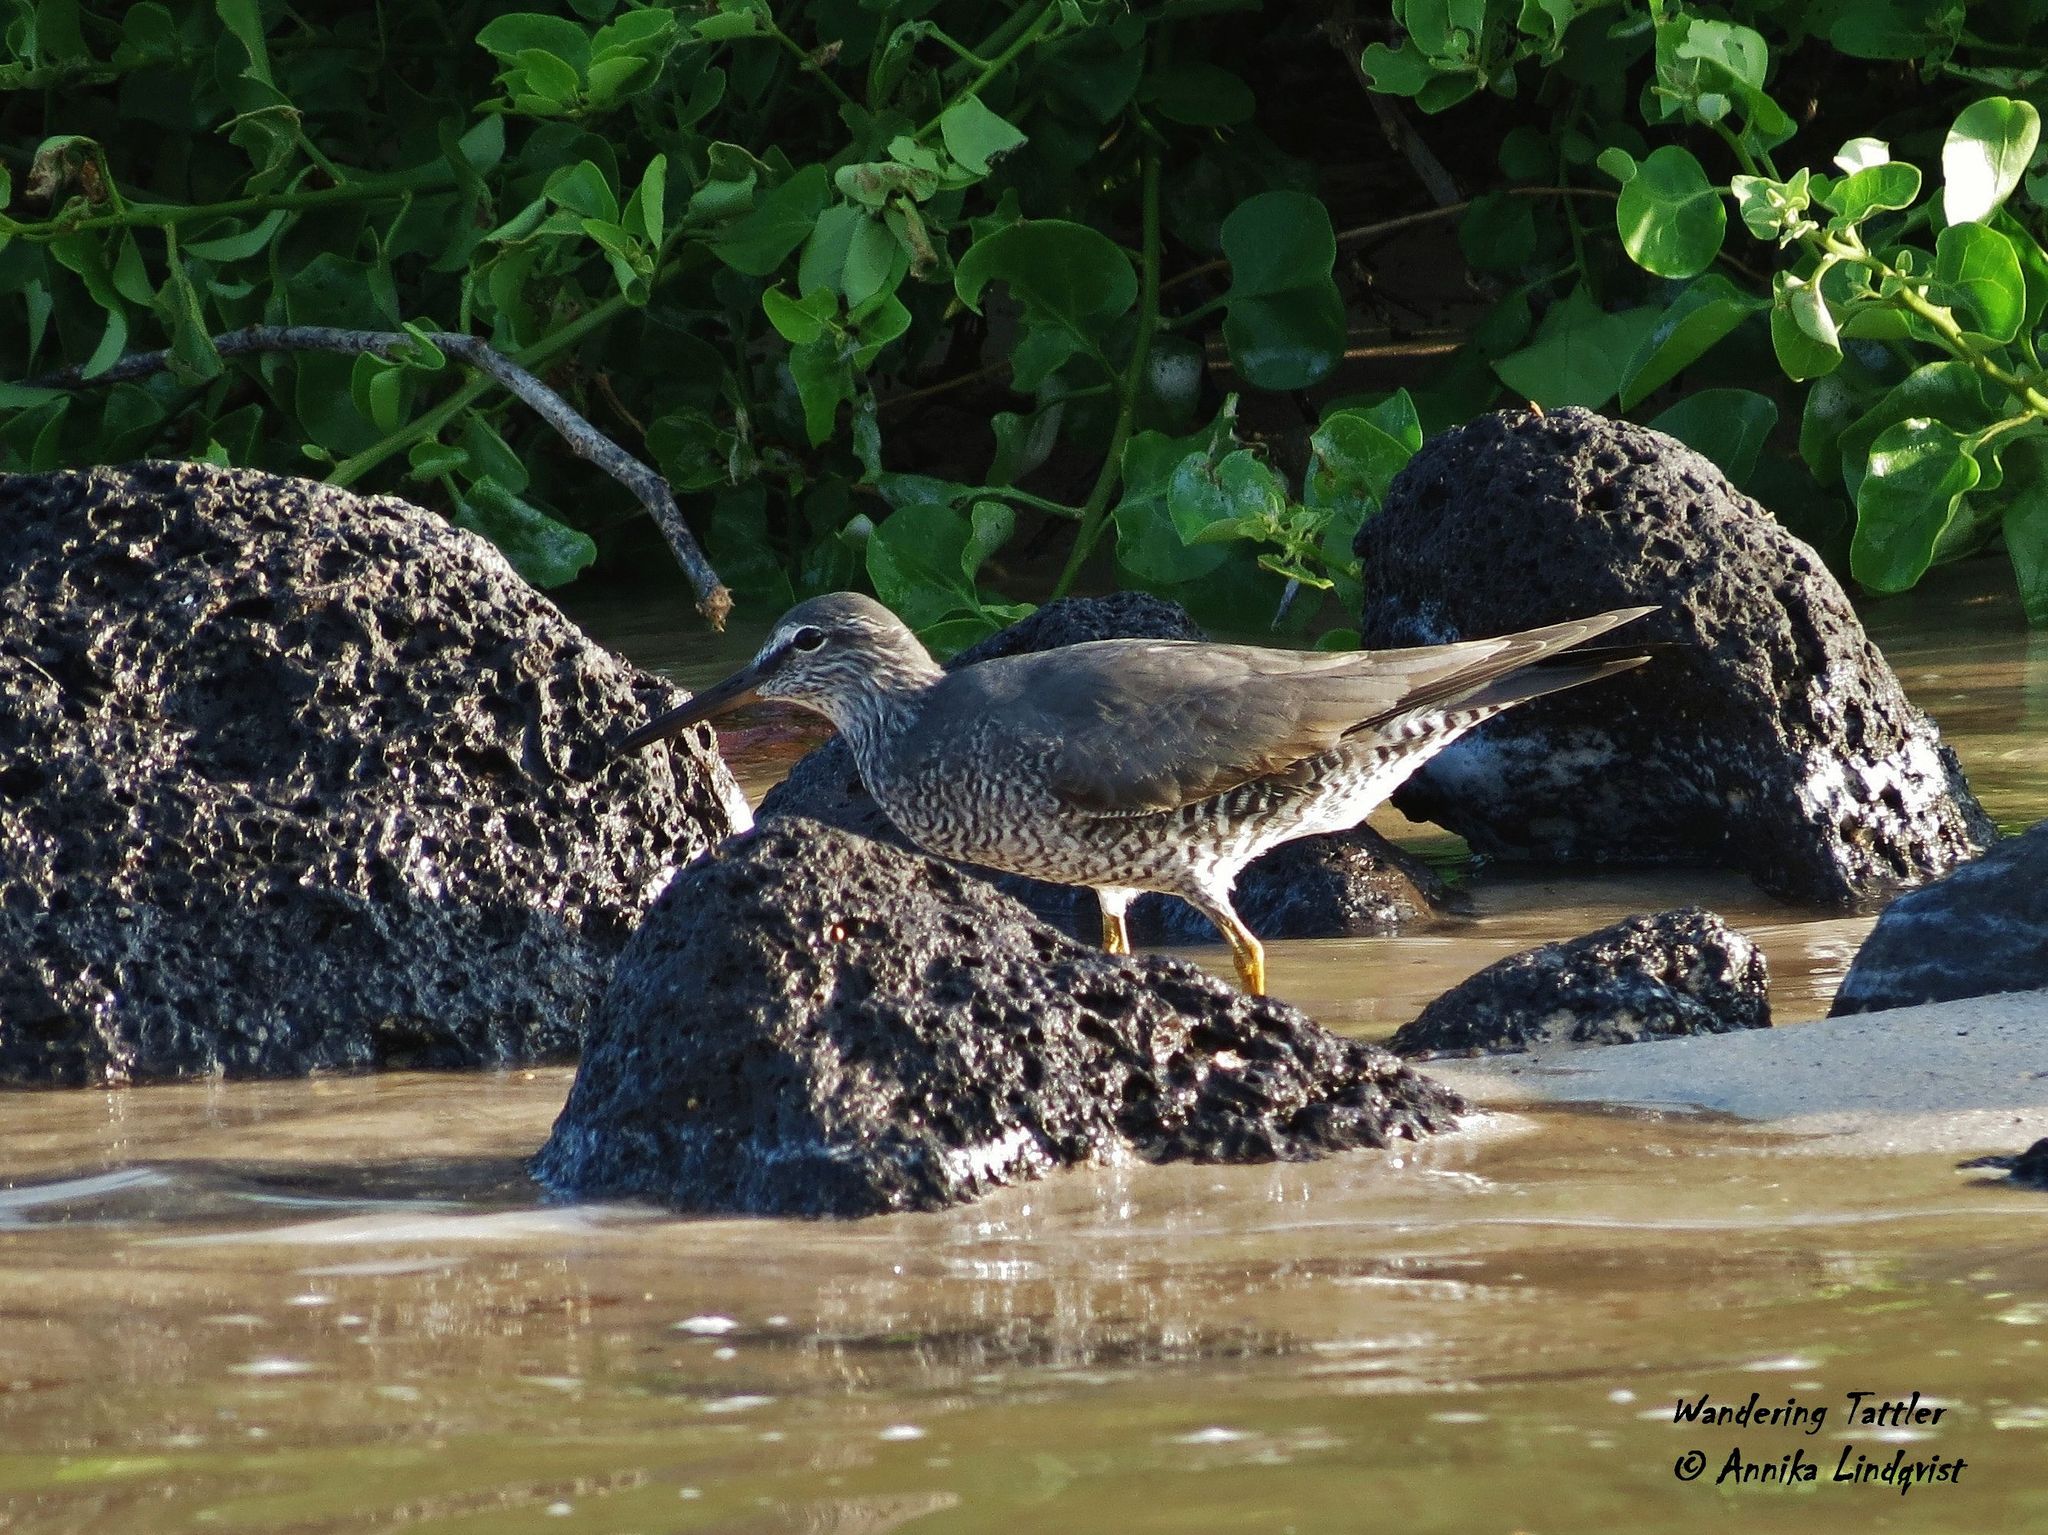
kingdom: Animalia
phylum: Chordata
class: Aves
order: Charadriiformes
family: Scolopacidae
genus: Tringa
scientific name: Tringa incana
